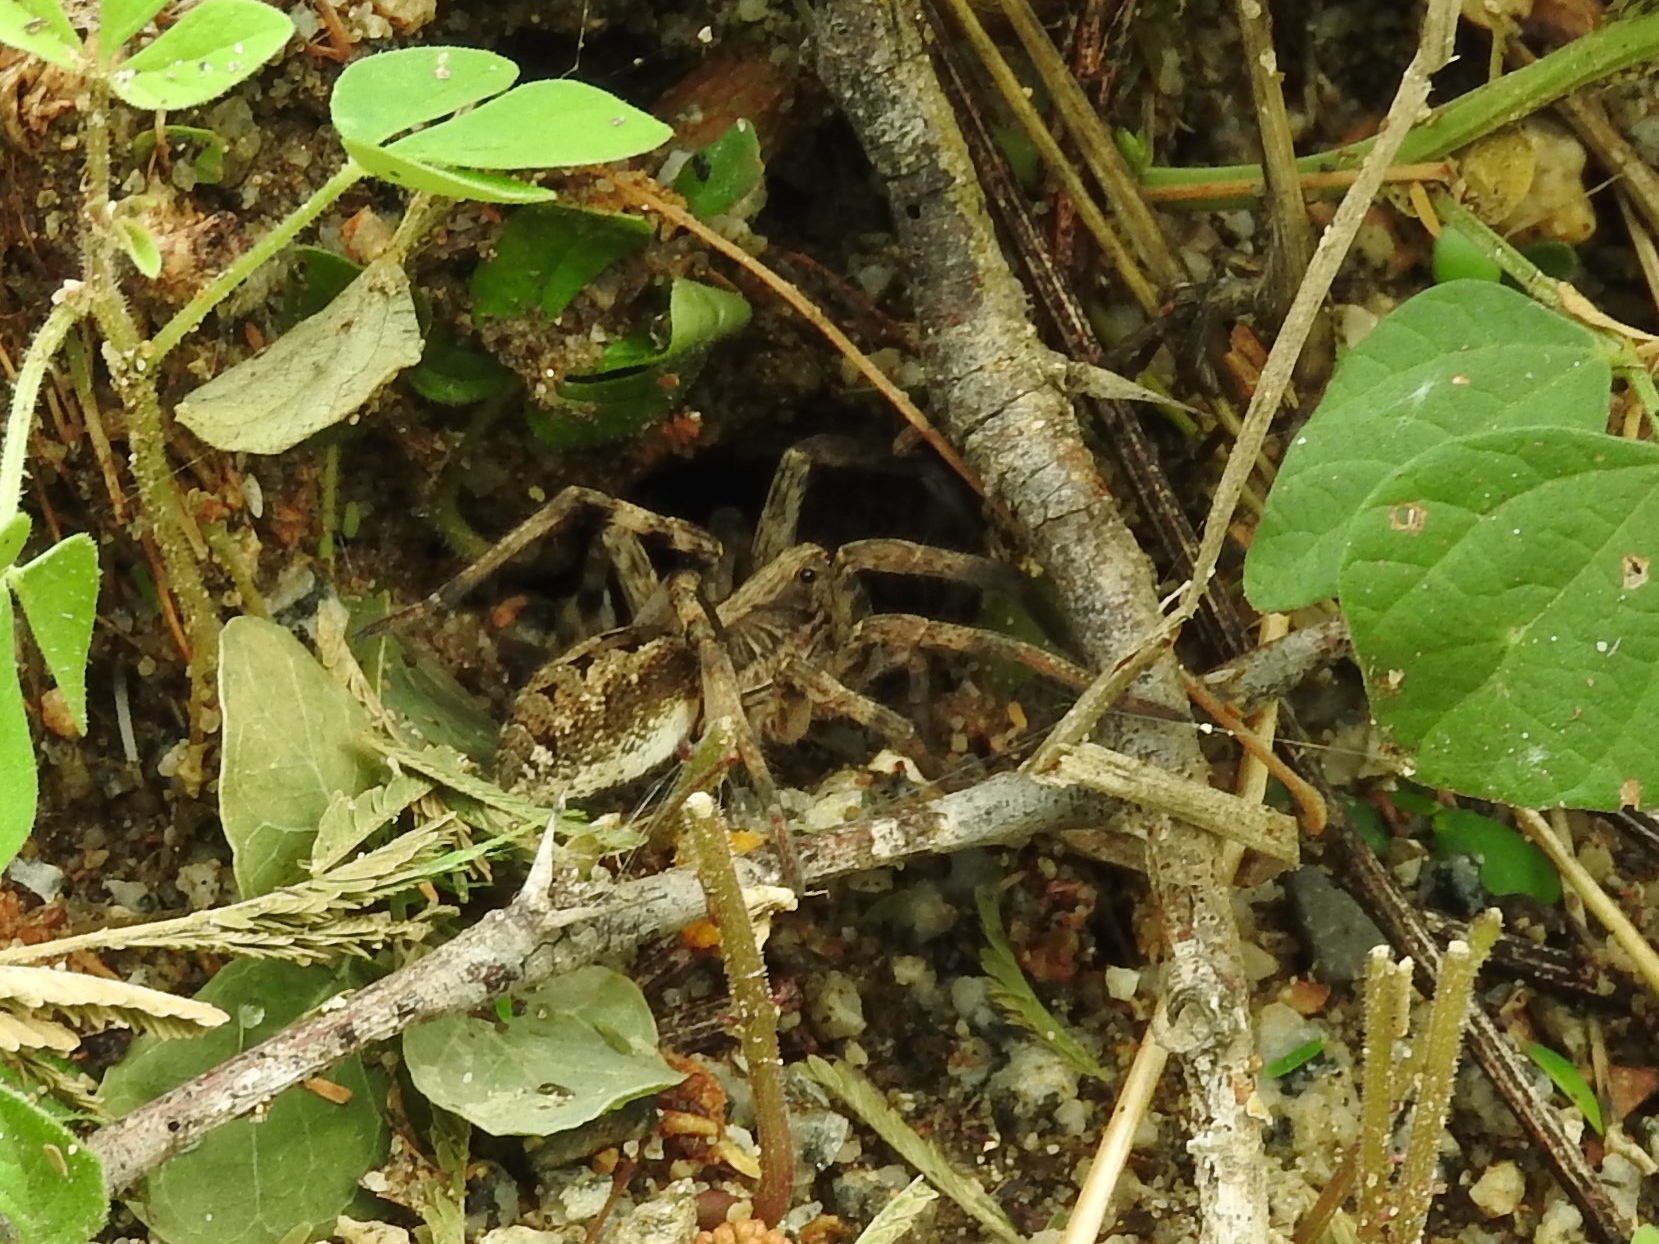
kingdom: Animalia
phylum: Arthropoda
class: Arachnida
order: Araneae
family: Sparassidae
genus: Curicaberis
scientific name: Curicaberis culiacan
